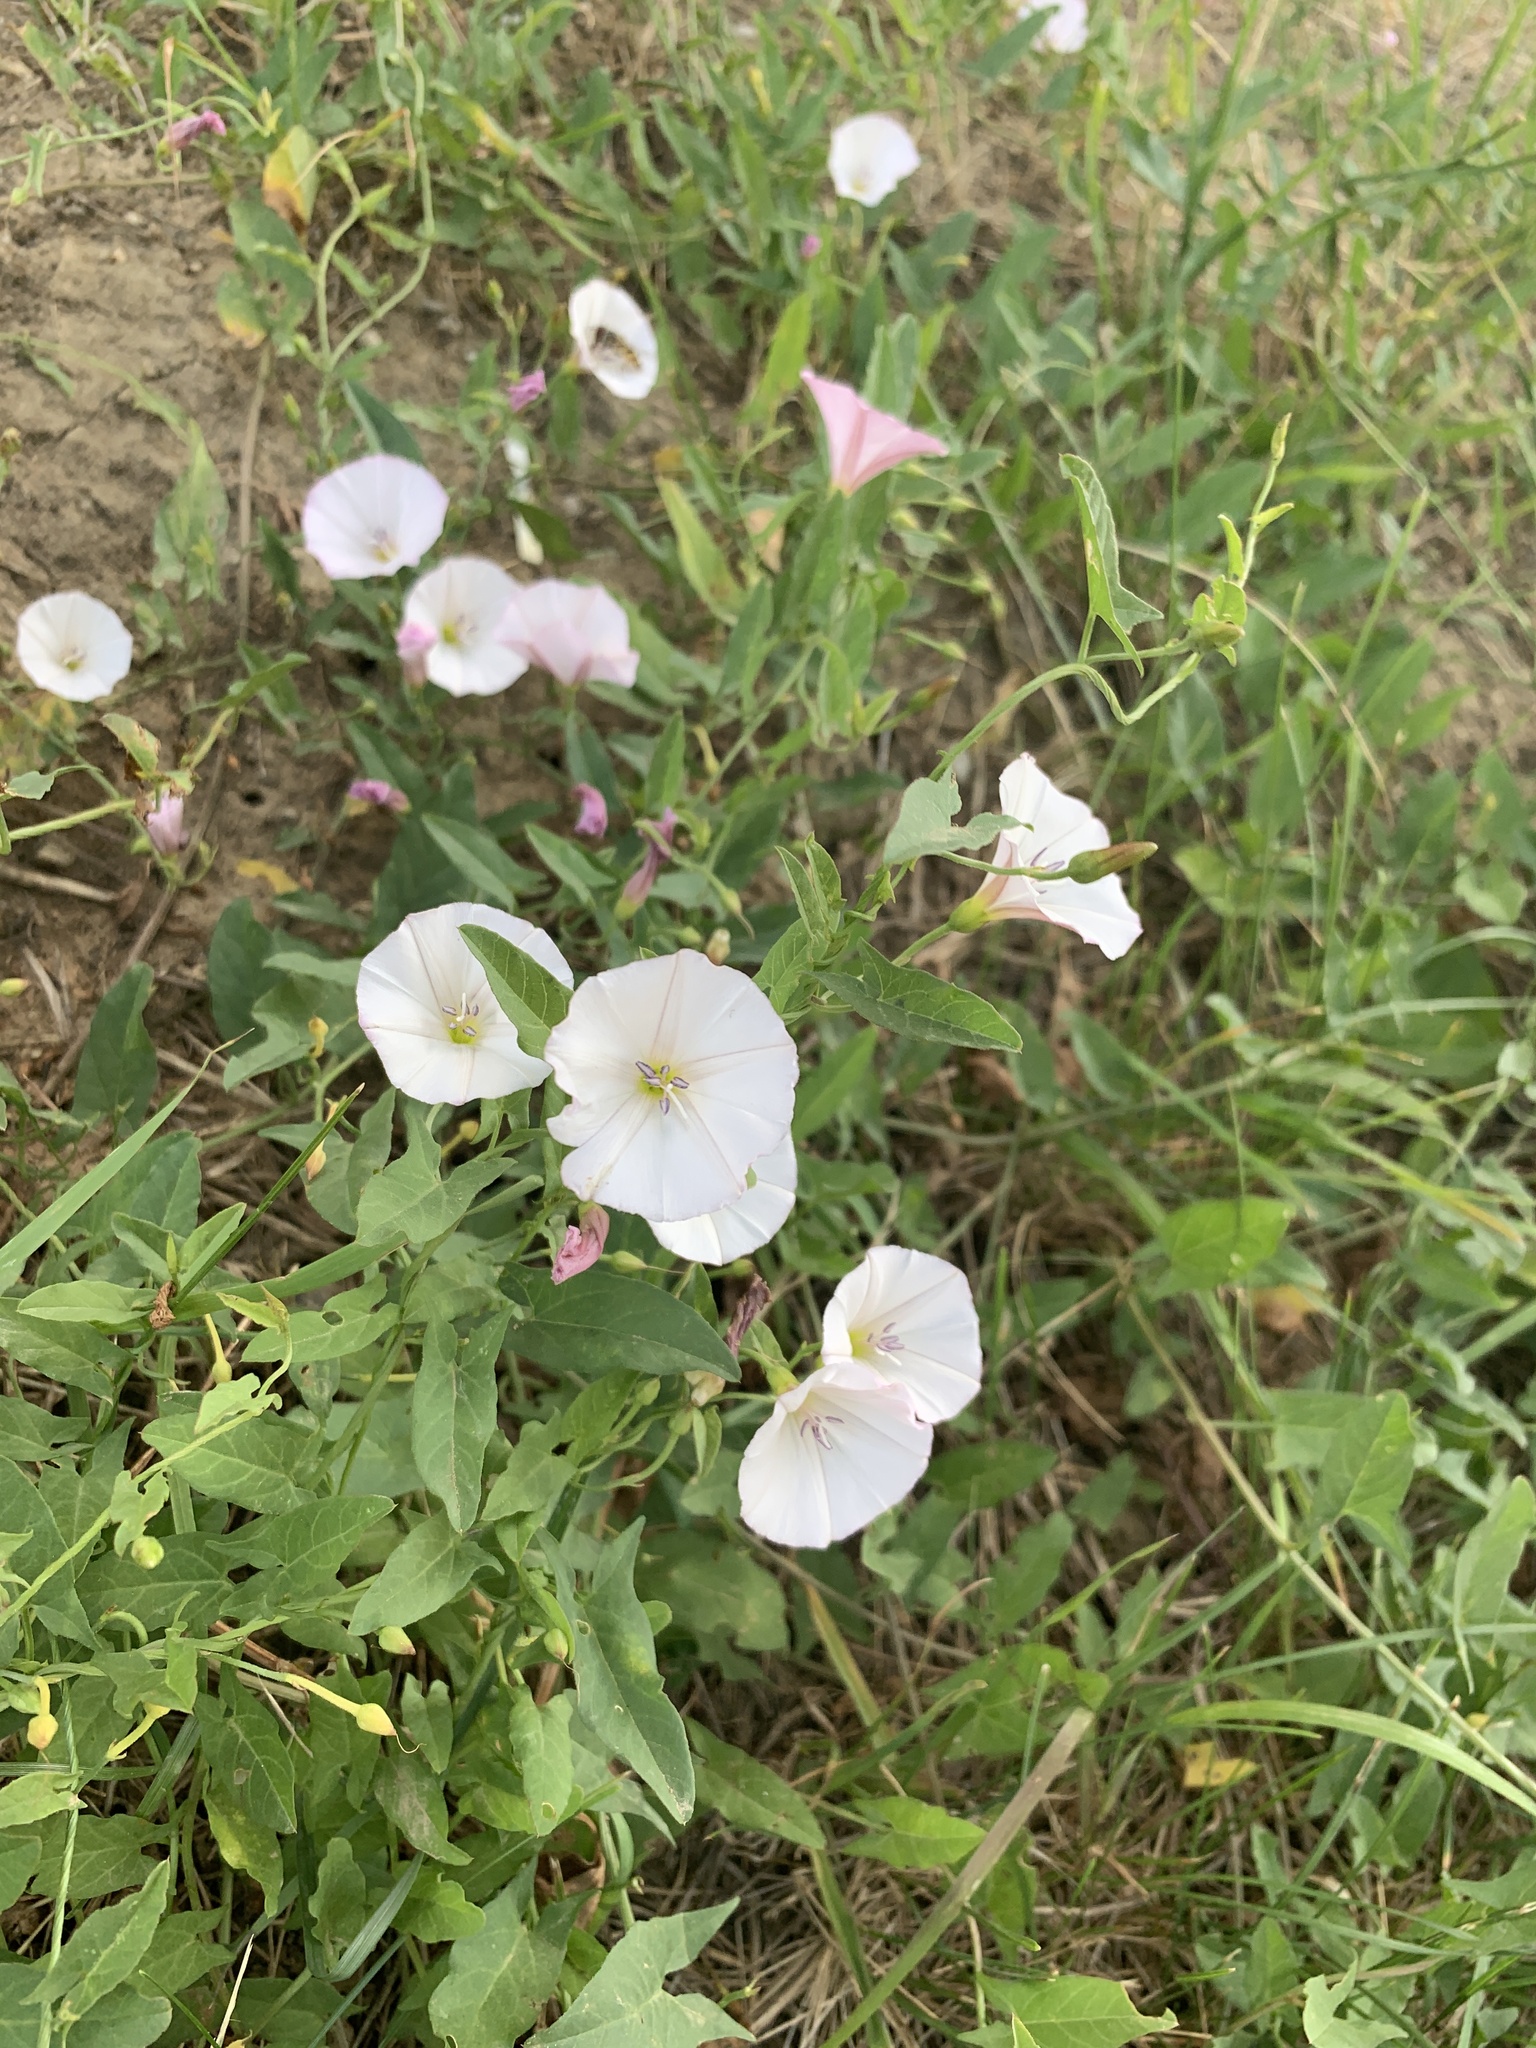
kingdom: Plantae
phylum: Tracheophyta
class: Magnoliopsida
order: Solanales
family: Convolvulaceae
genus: Convolvulus
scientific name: Convolvulus arvensis
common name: Field bindweed
